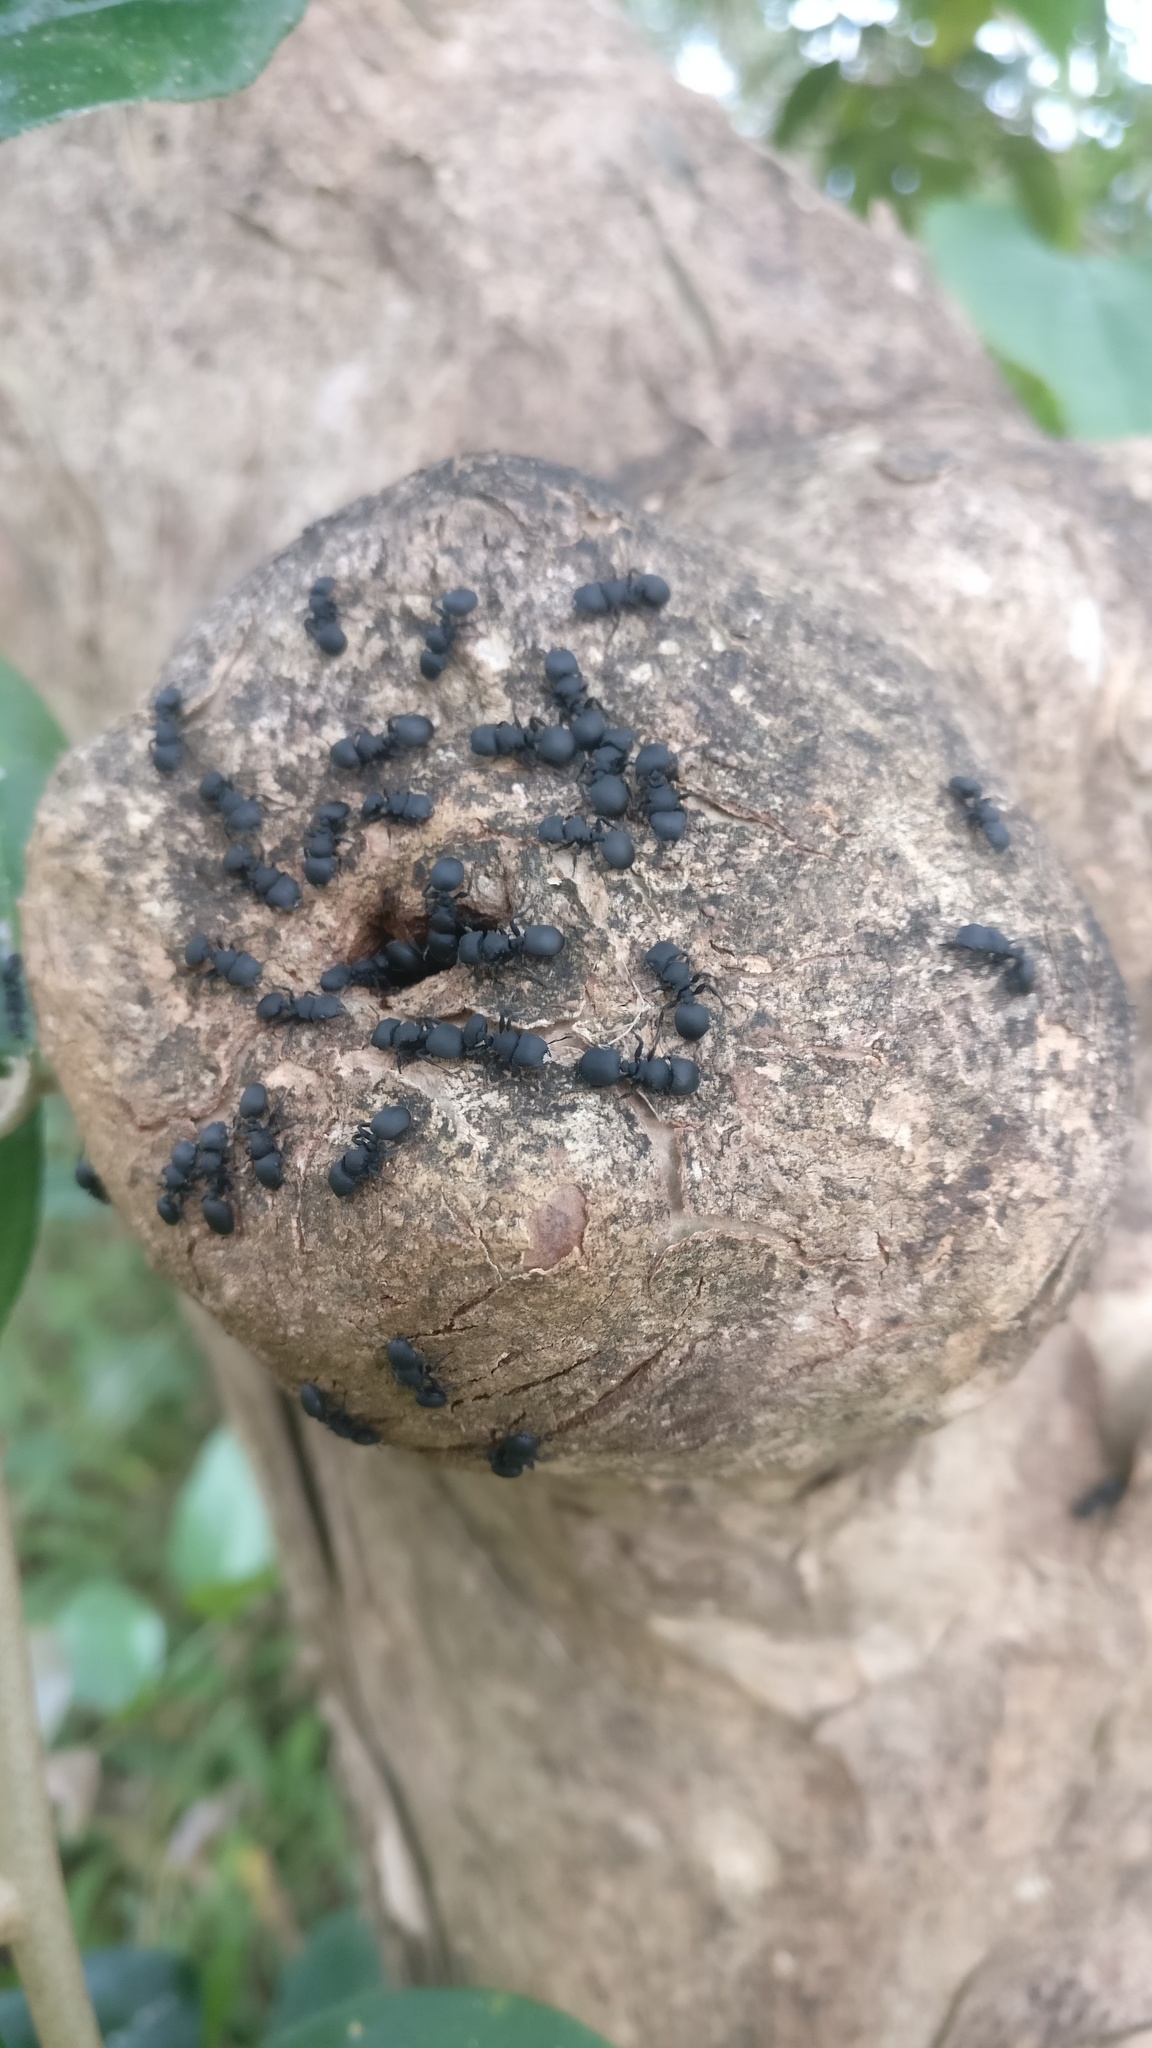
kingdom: Animalia
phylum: Arthropoda
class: Insecta
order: Hymenoptera
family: Formicidae
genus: Cataulacus
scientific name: Cataulacus latus
